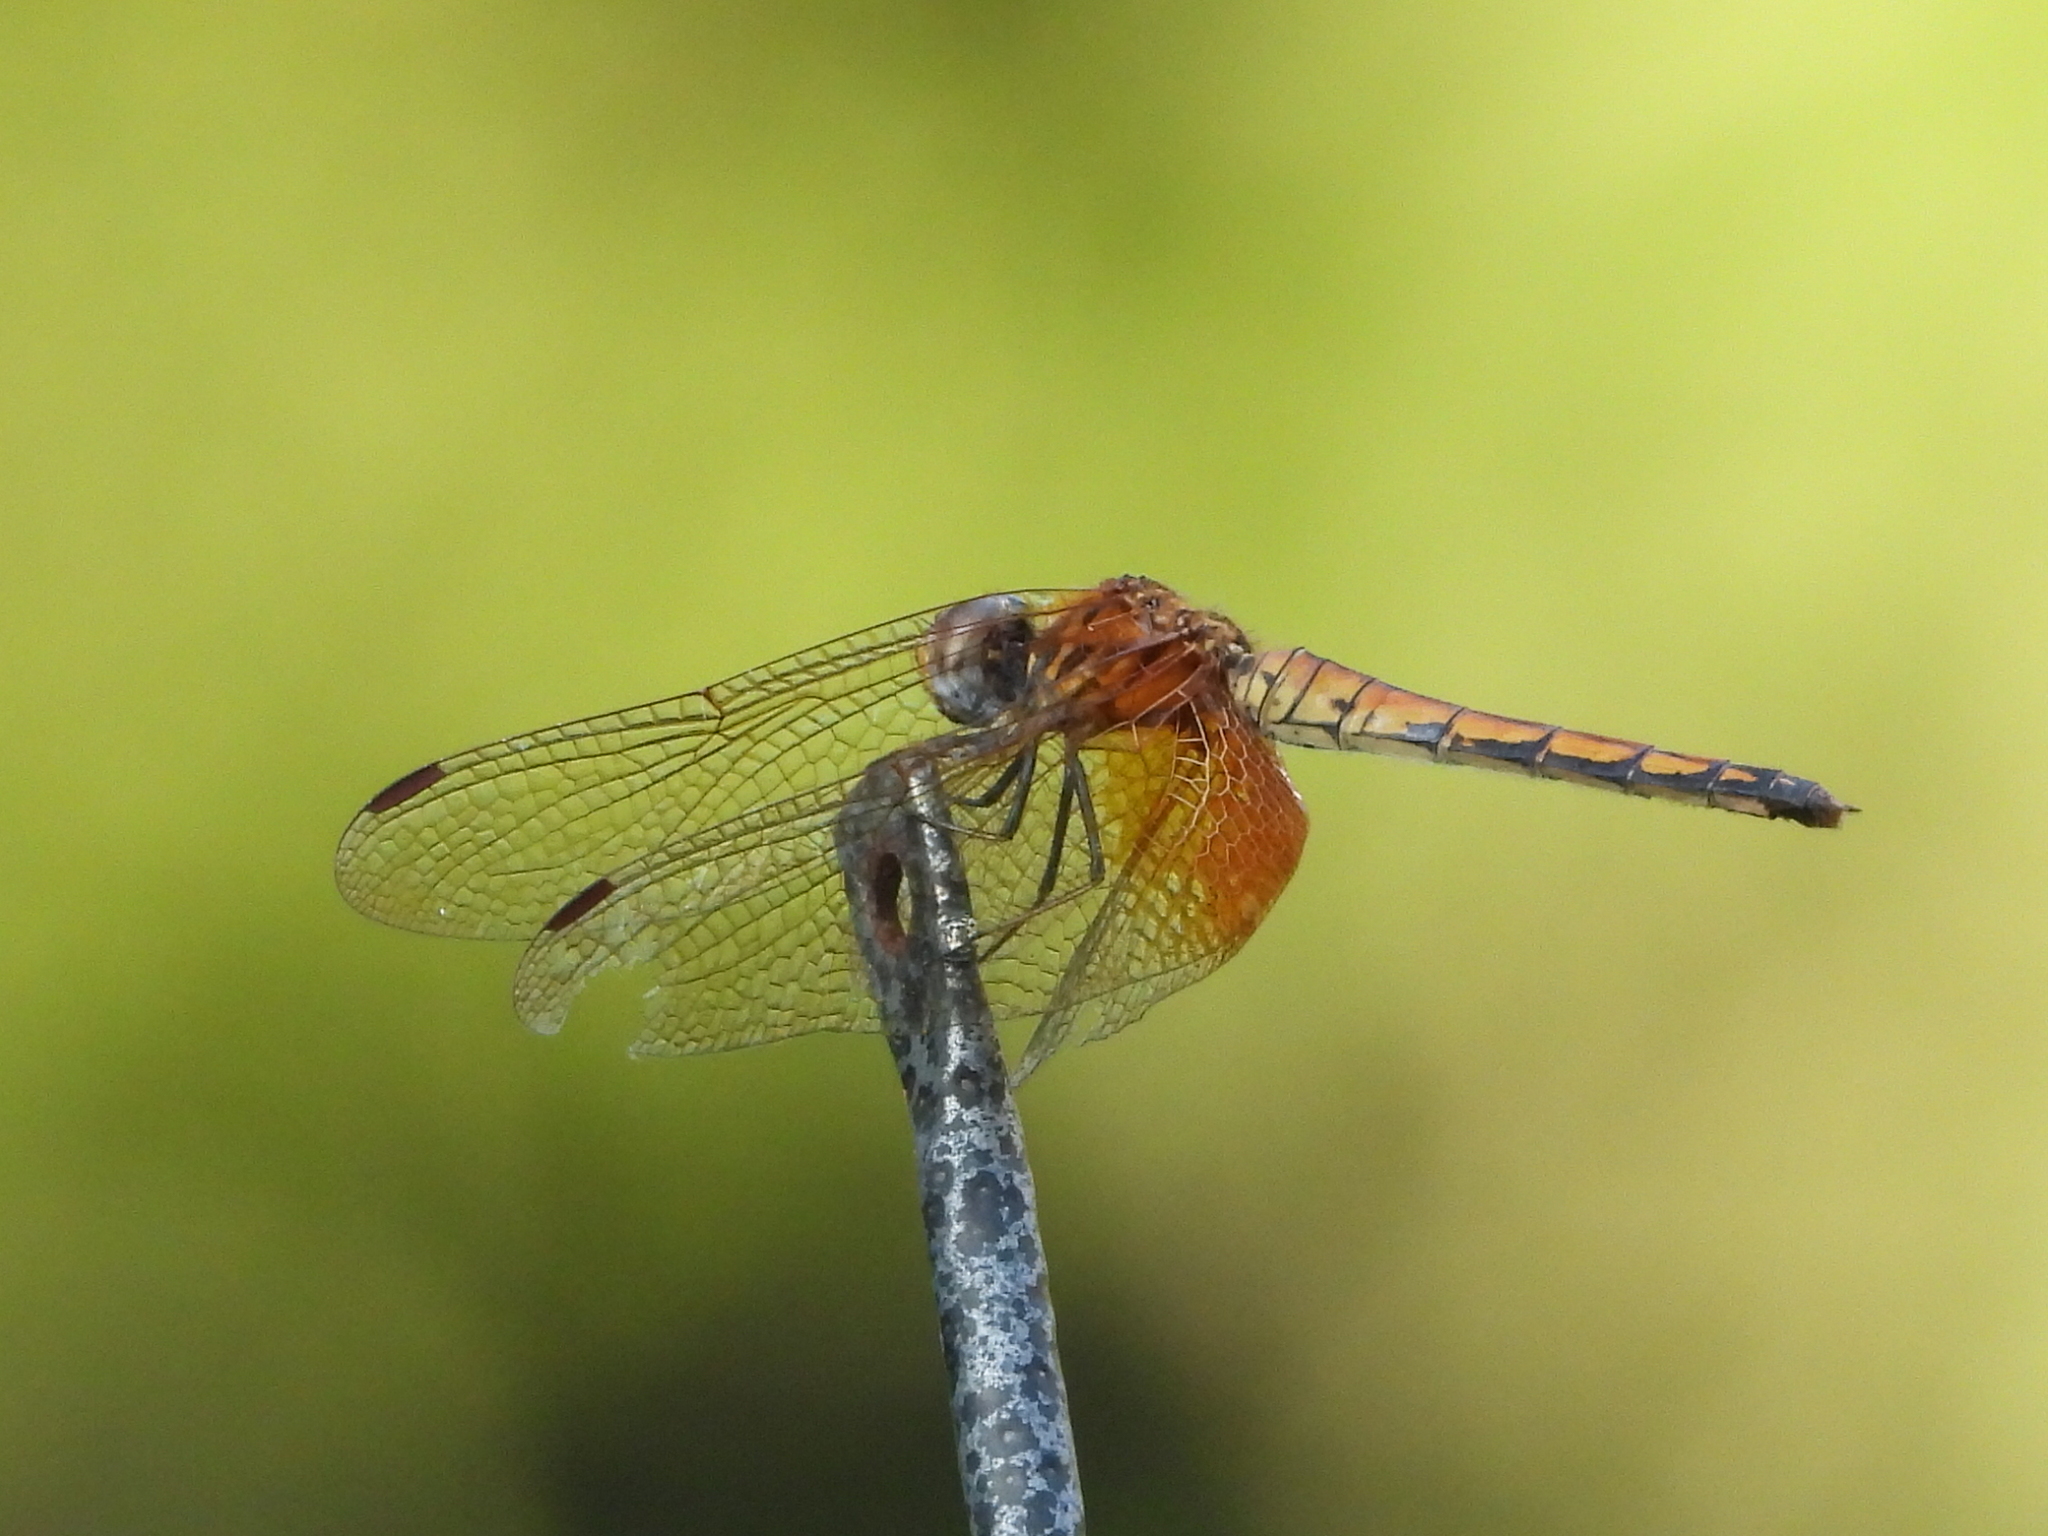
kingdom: Animalia
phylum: Arthropoda
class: Insecta
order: Odonata
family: Libellulidae
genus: Trithemis
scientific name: Trithemis aurora
